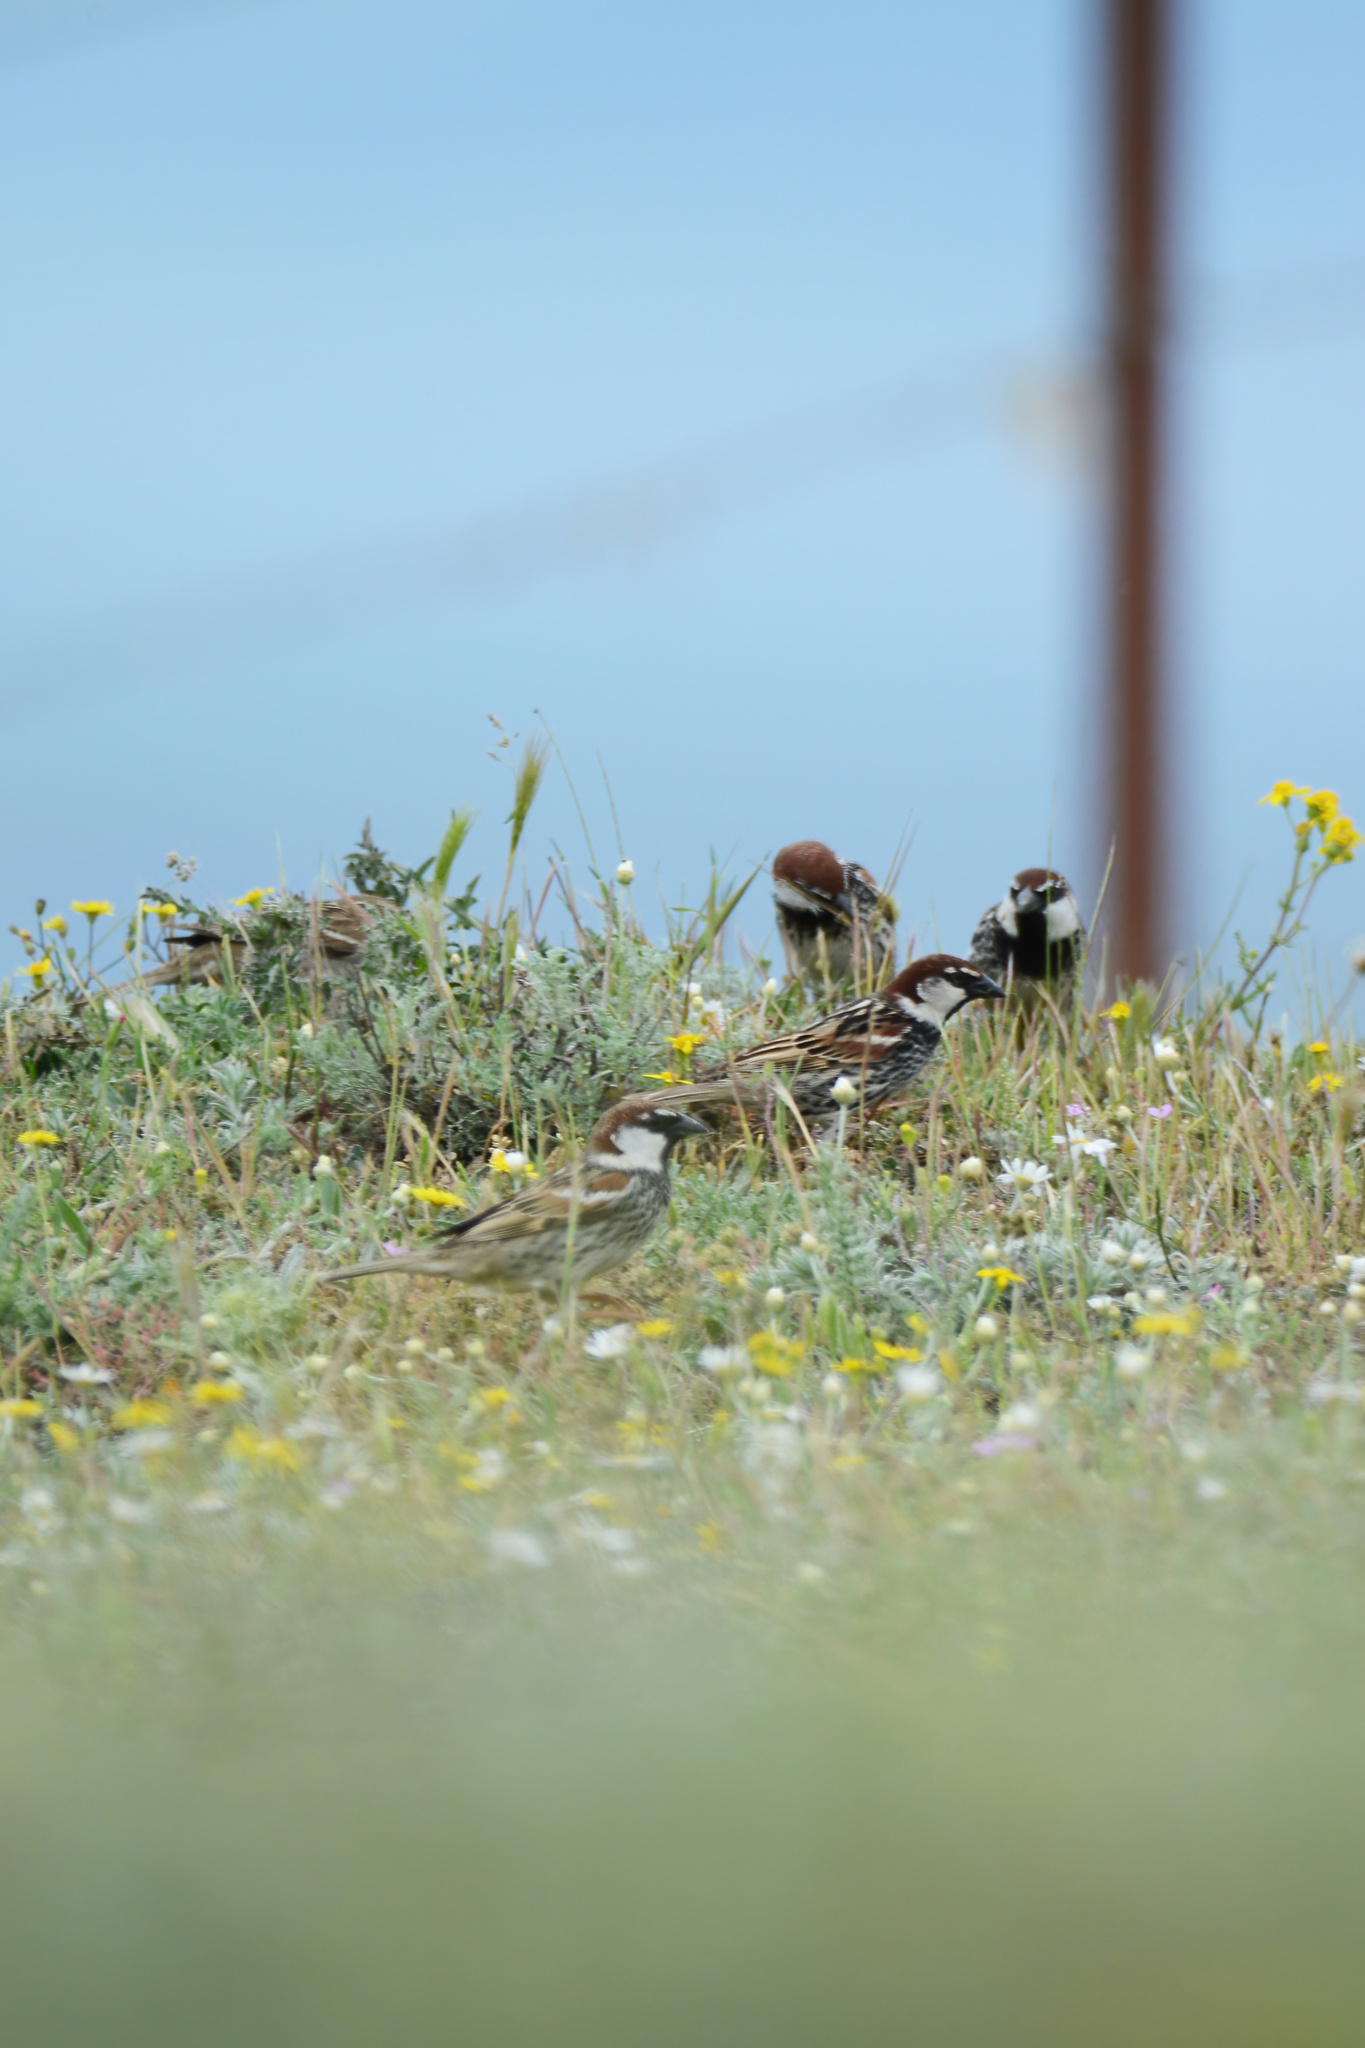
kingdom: Animalia
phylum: Chordata
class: Aves
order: Passeriformes
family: Passeridae
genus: Passer
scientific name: Passer hispaniolensis
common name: Spanish sparrow
